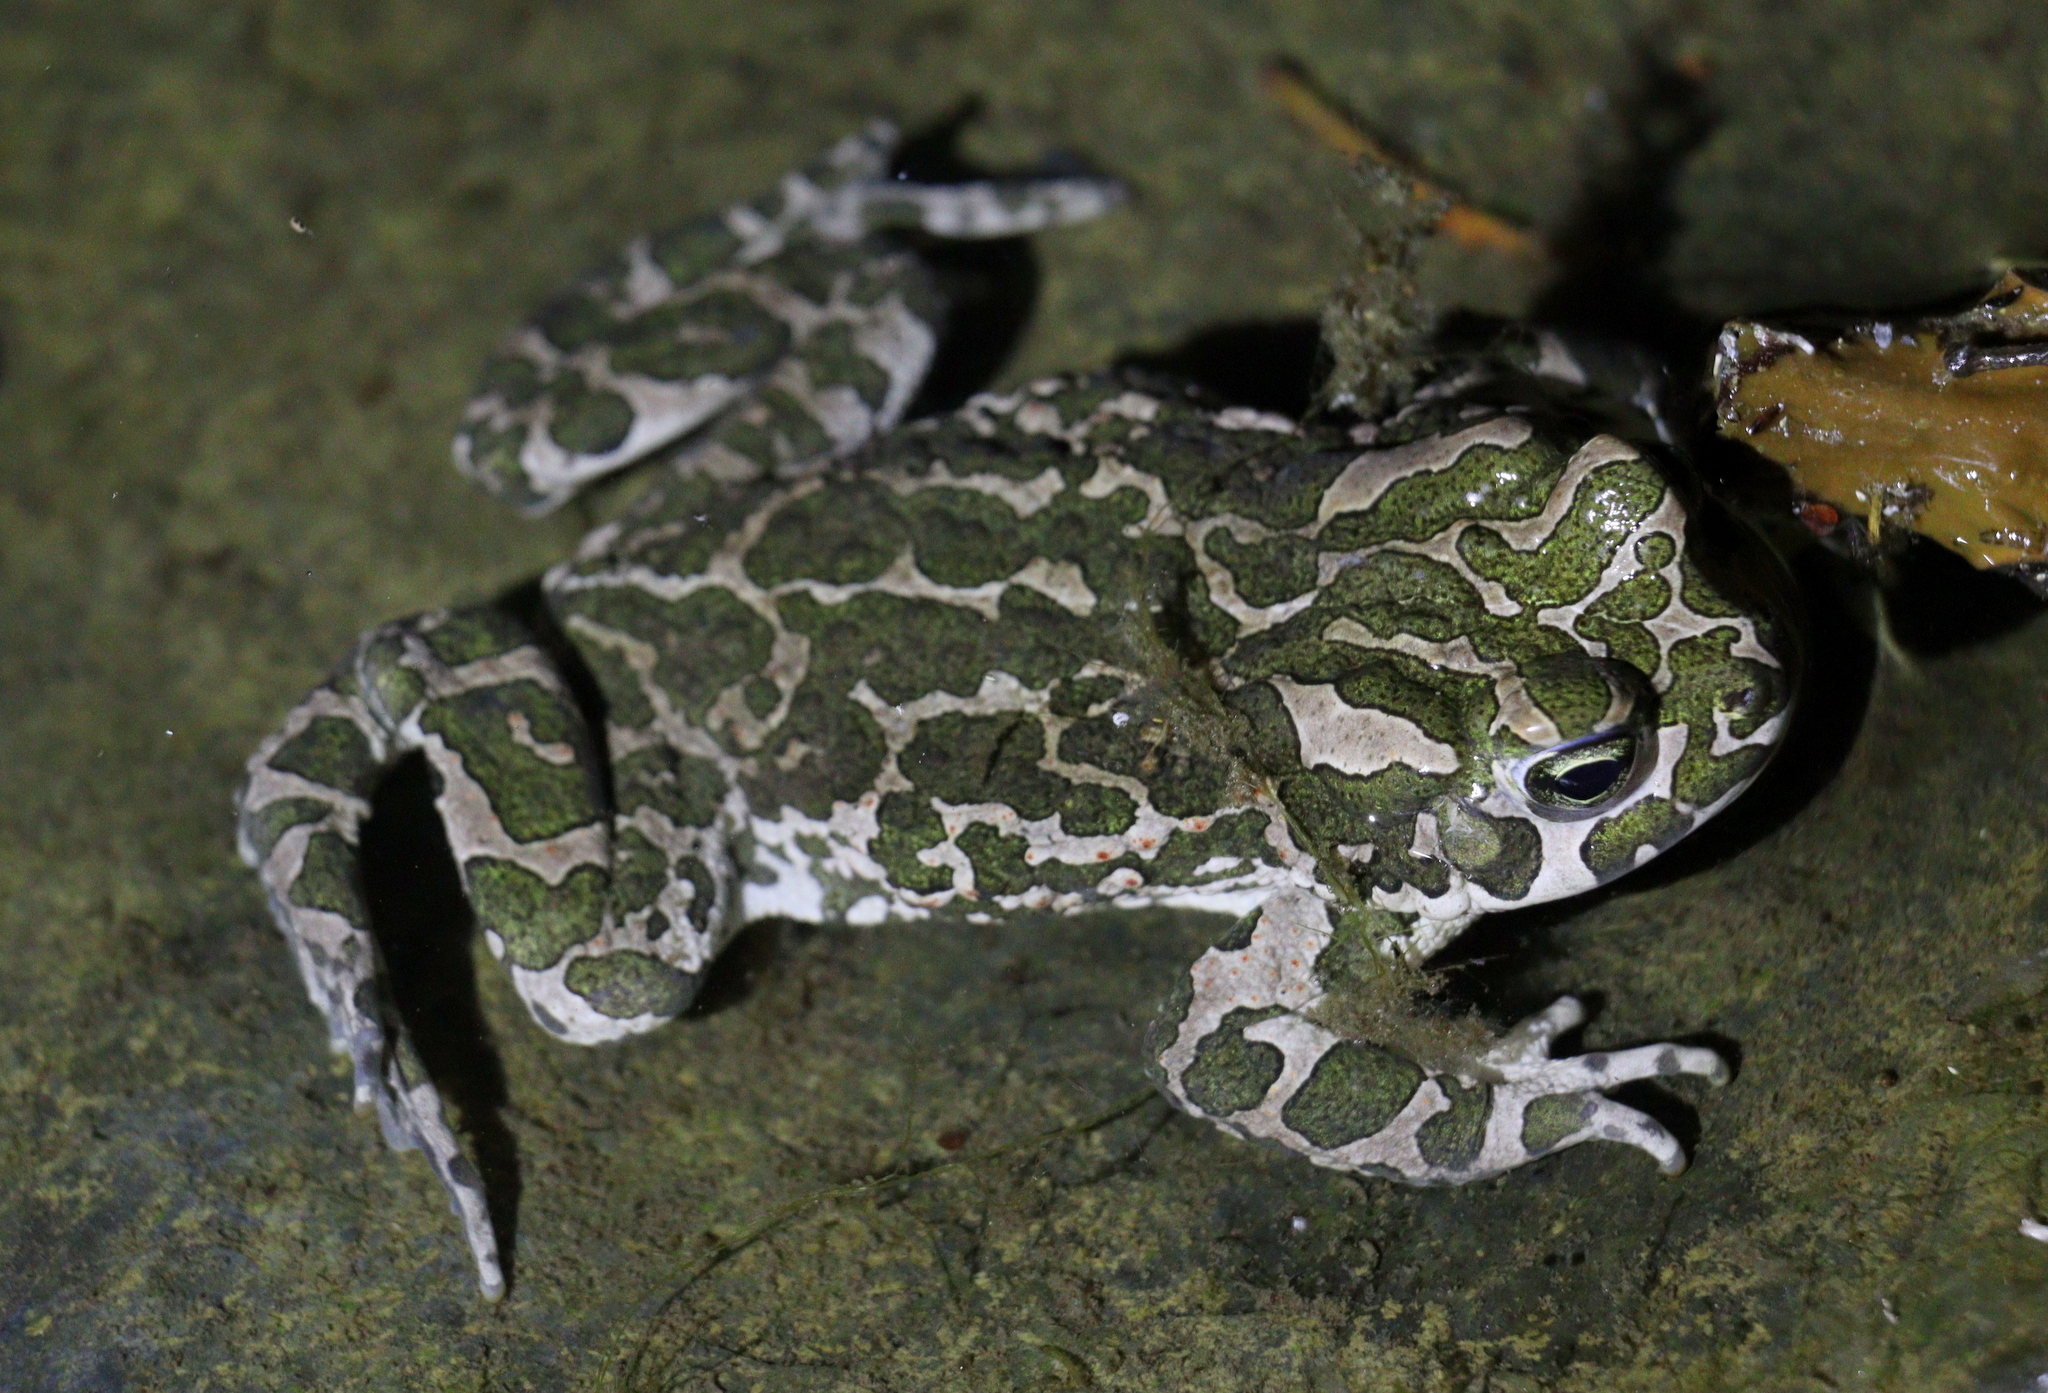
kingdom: Animalia
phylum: Chordata
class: Amphibia
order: Anura
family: Bufonidae
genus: Bufotes
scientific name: Bufotes viridis
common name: European green toad
